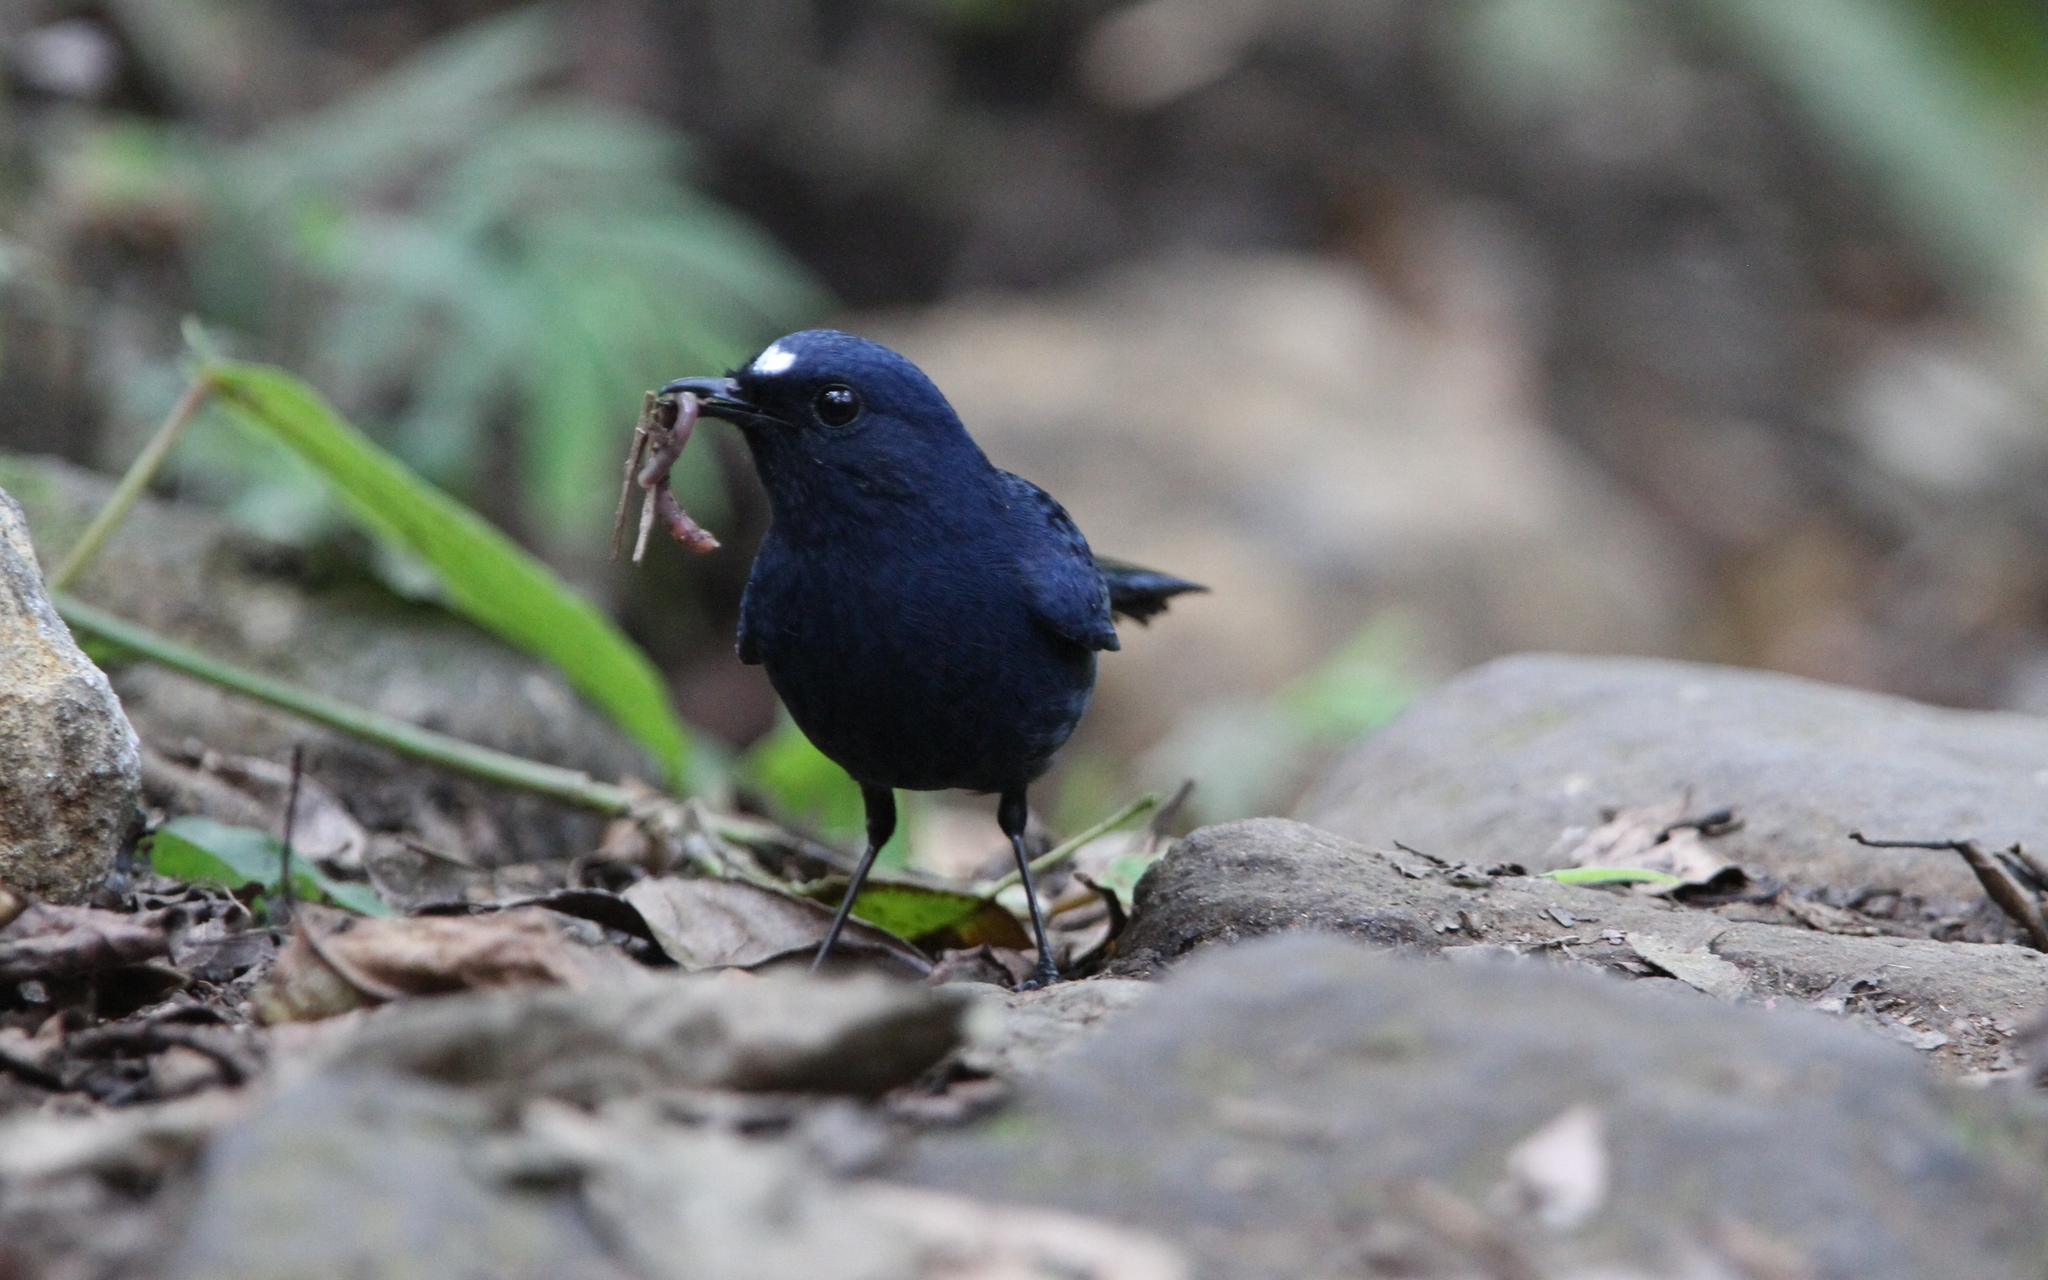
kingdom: Animalia
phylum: Chordata
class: Aves
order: Passeriformes
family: Muscicapidae
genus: Myiomela
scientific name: Myiomela diana
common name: Sunda robin
